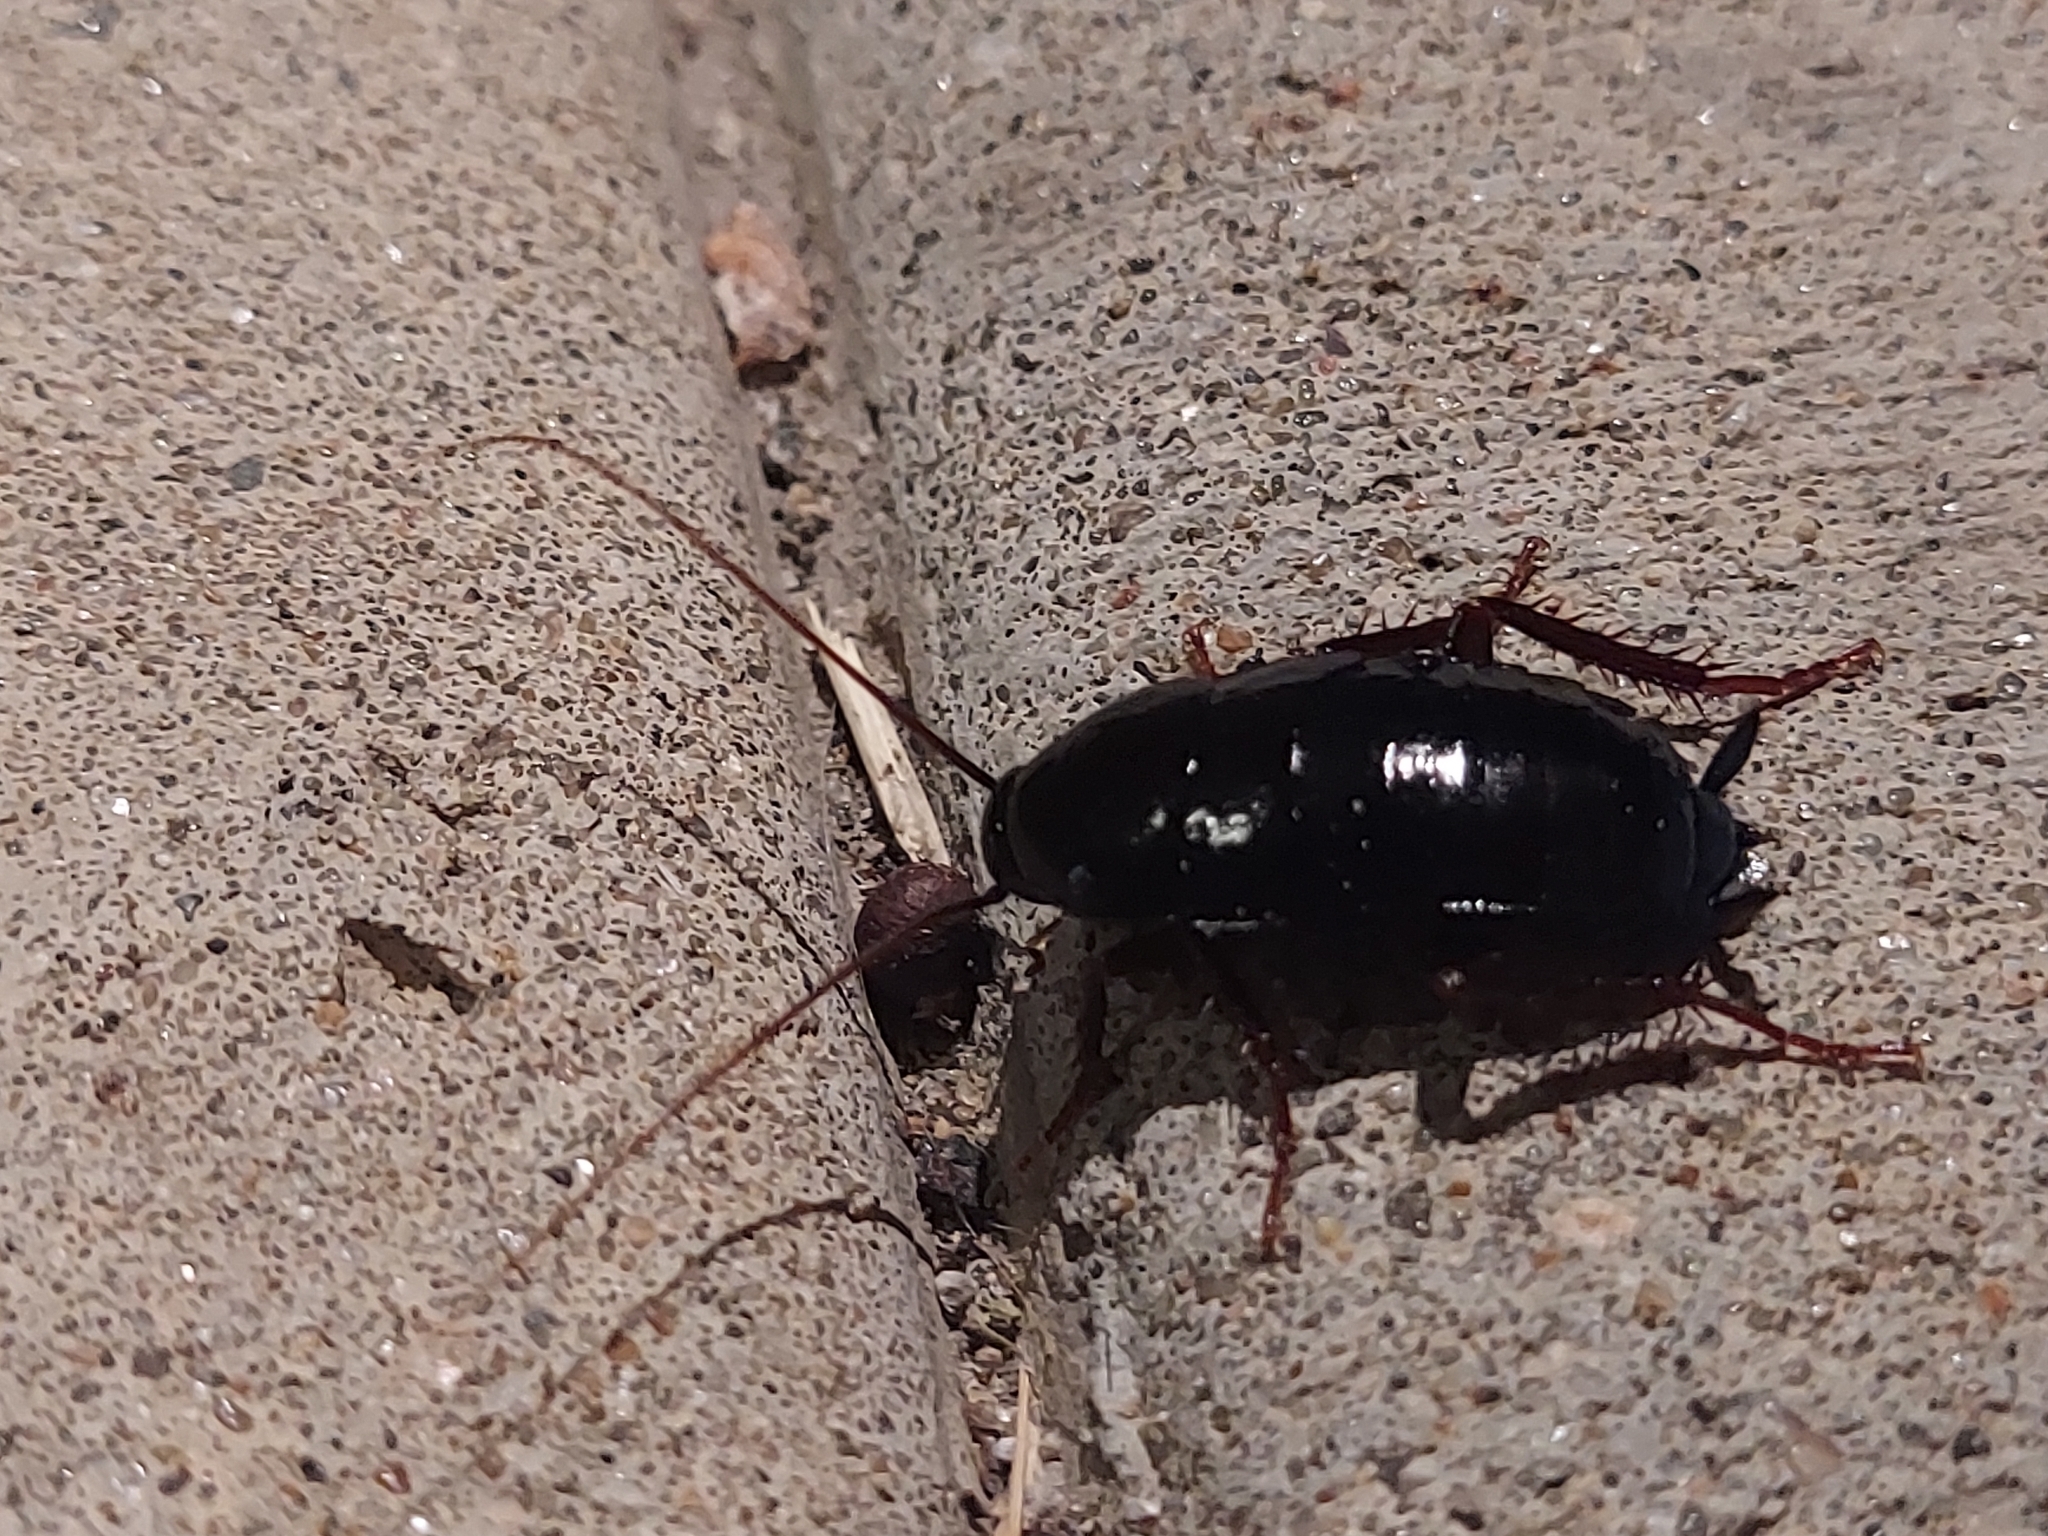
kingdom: Animalia
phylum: Arthropoda
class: Insecta
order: Blattodea
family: Blattidae
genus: Blatta
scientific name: Blatta orientalis
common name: Oriental cockroach
